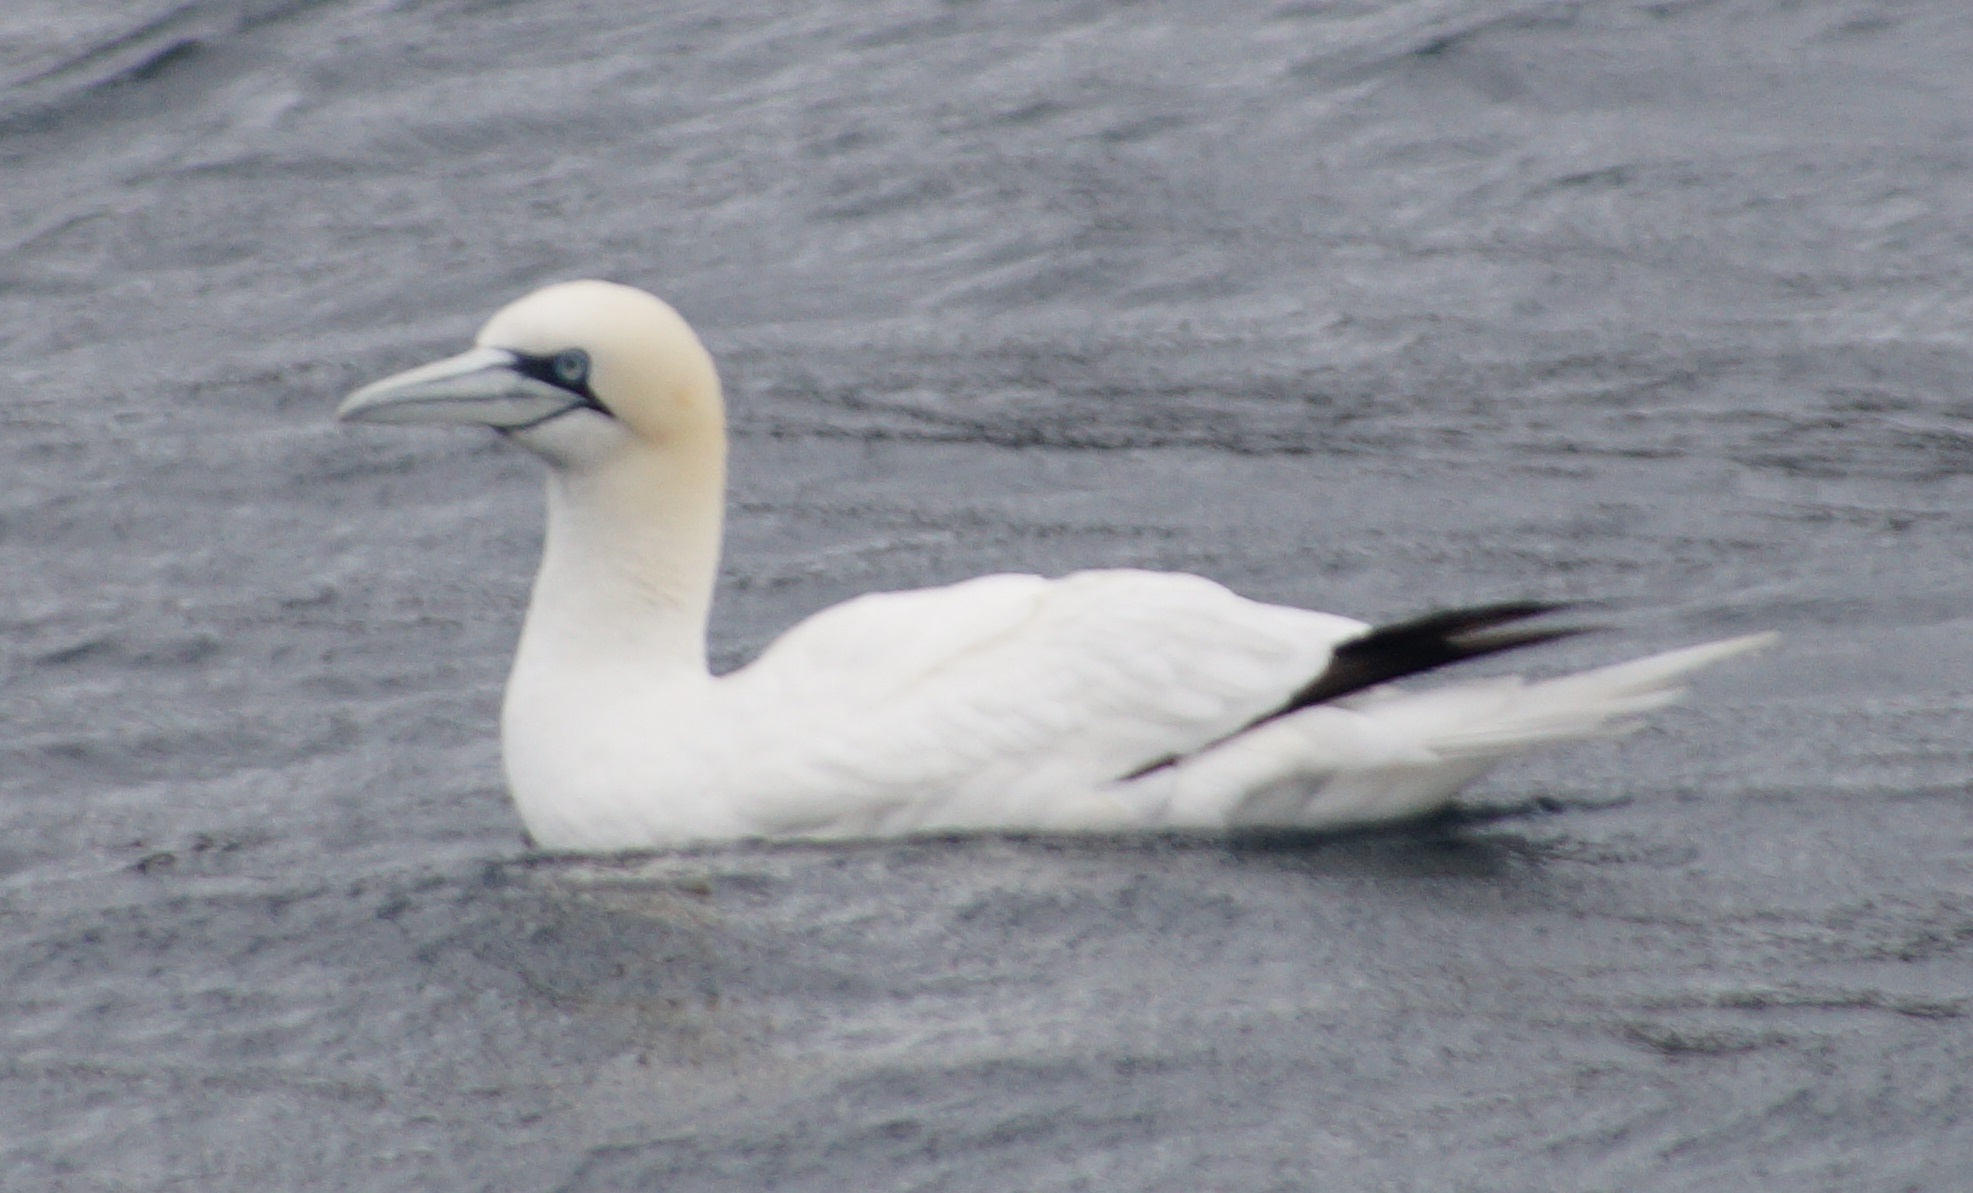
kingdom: Animalia
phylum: Chordata
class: Aves
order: Suliformes
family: Sulidae
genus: Morus
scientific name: Morus bassanus
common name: Northern gannet
